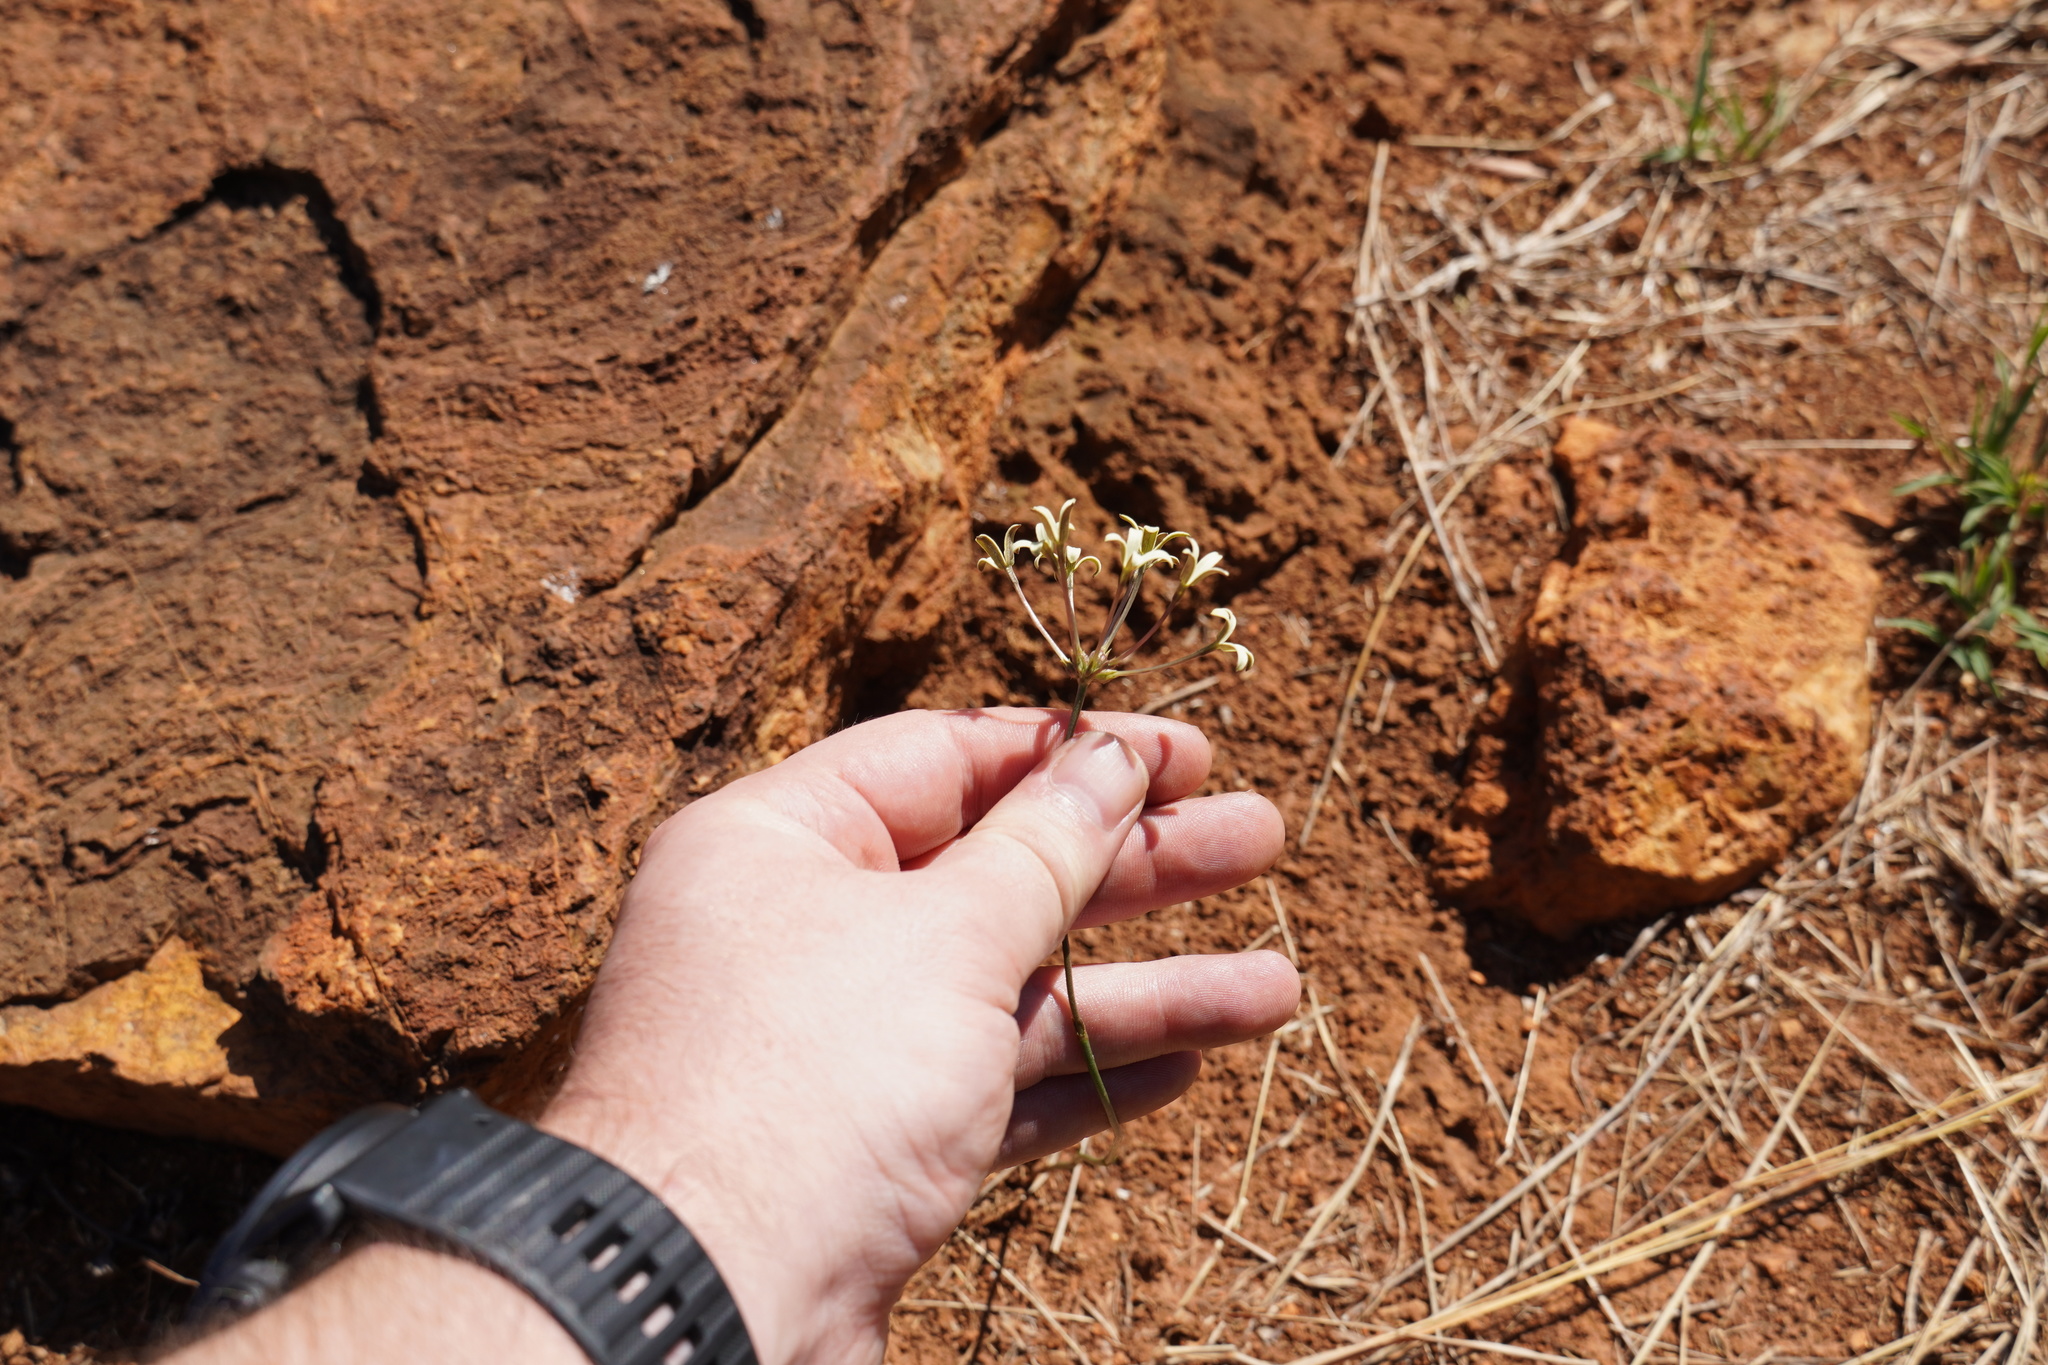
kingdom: Plantae
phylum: Tracheophyta
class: Magnoliopsida
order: Gentianales
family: Rubiaceae
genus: Kohautia
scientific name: Kohautia amatymbica
